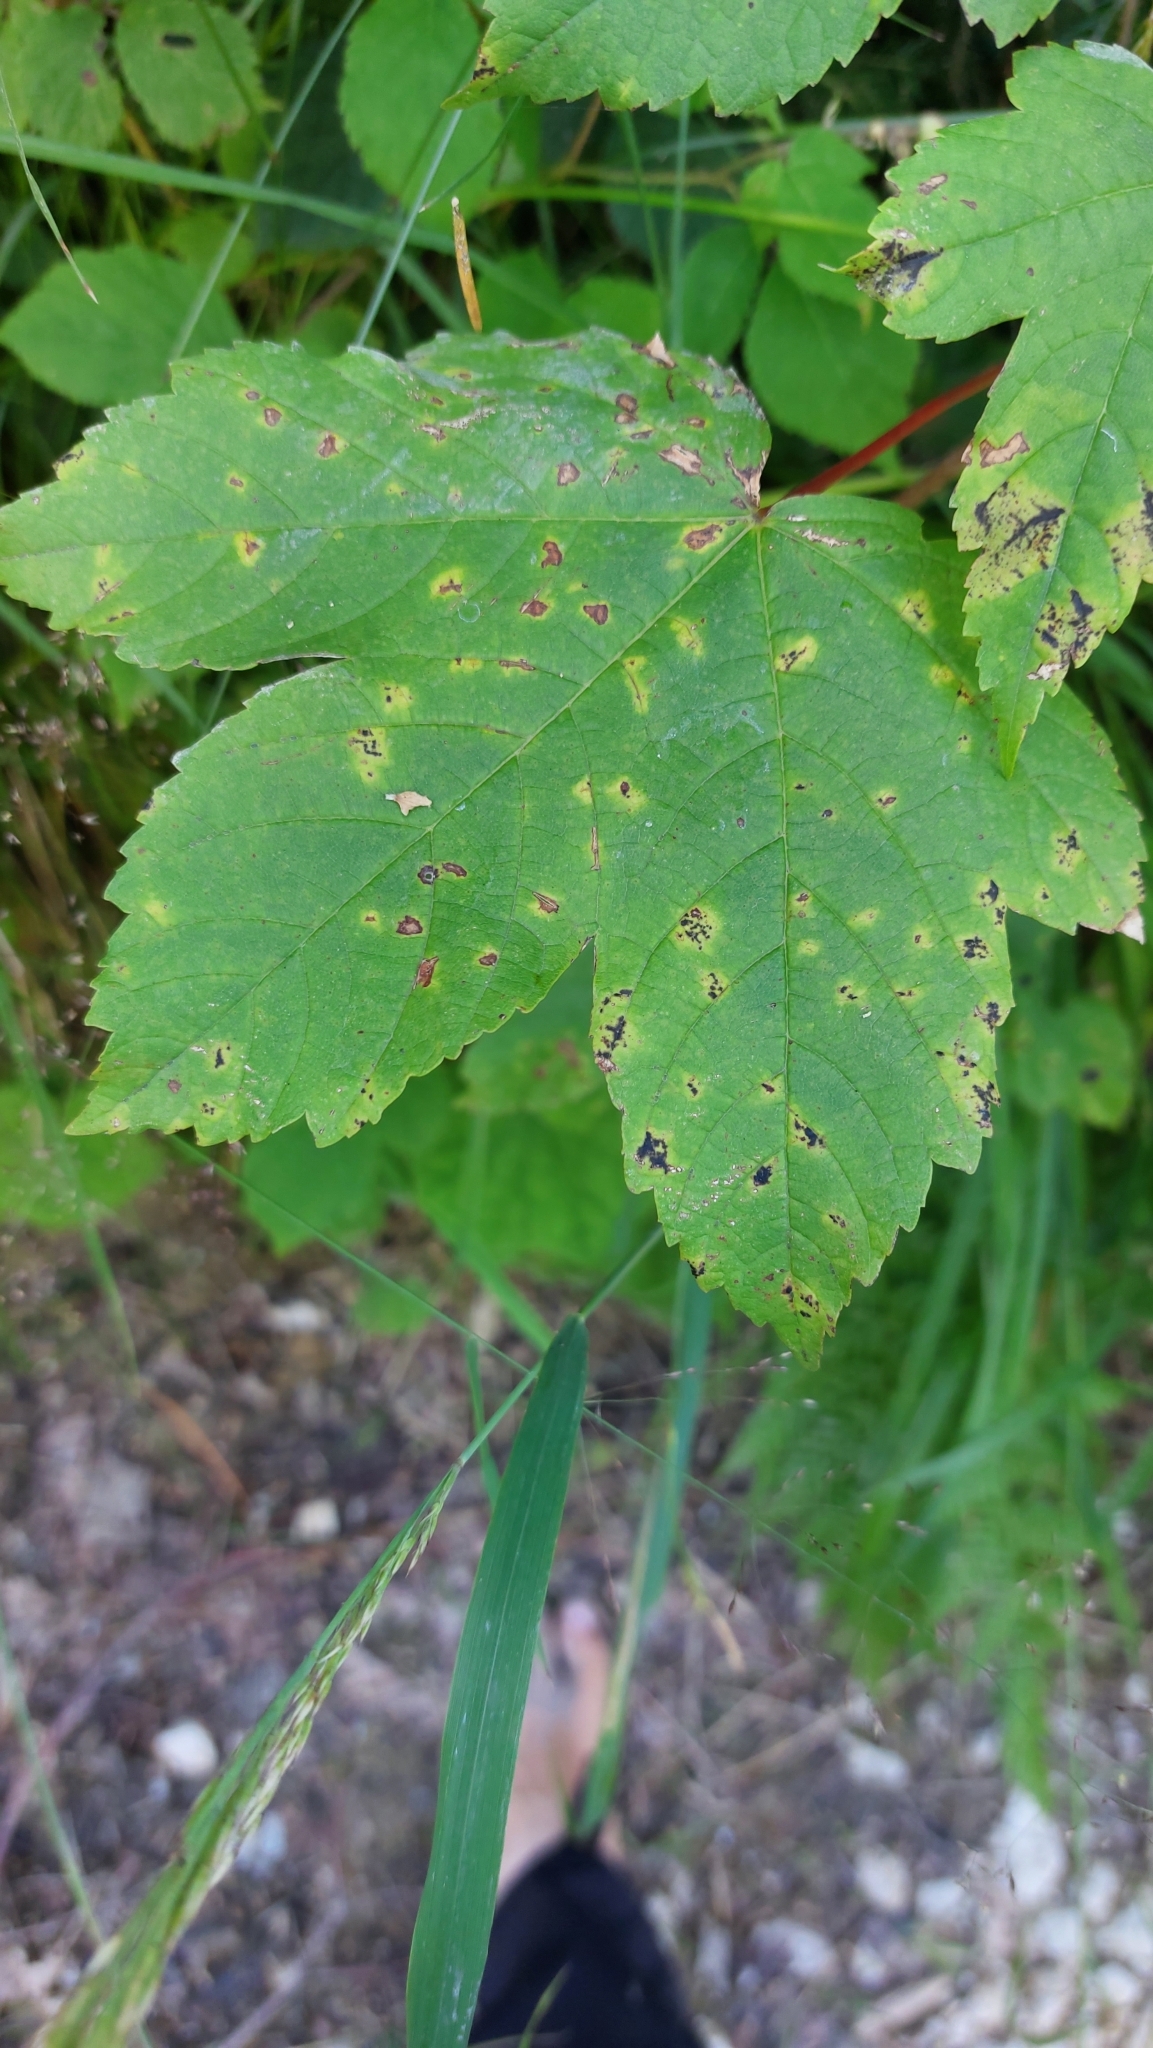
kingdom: Plantae
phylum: Tracheophyta
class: Magnoliopsida
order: Sapindales
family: Sapindaceae
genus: Acer
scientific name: Acer pseudoplatanus
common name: Sycamore
